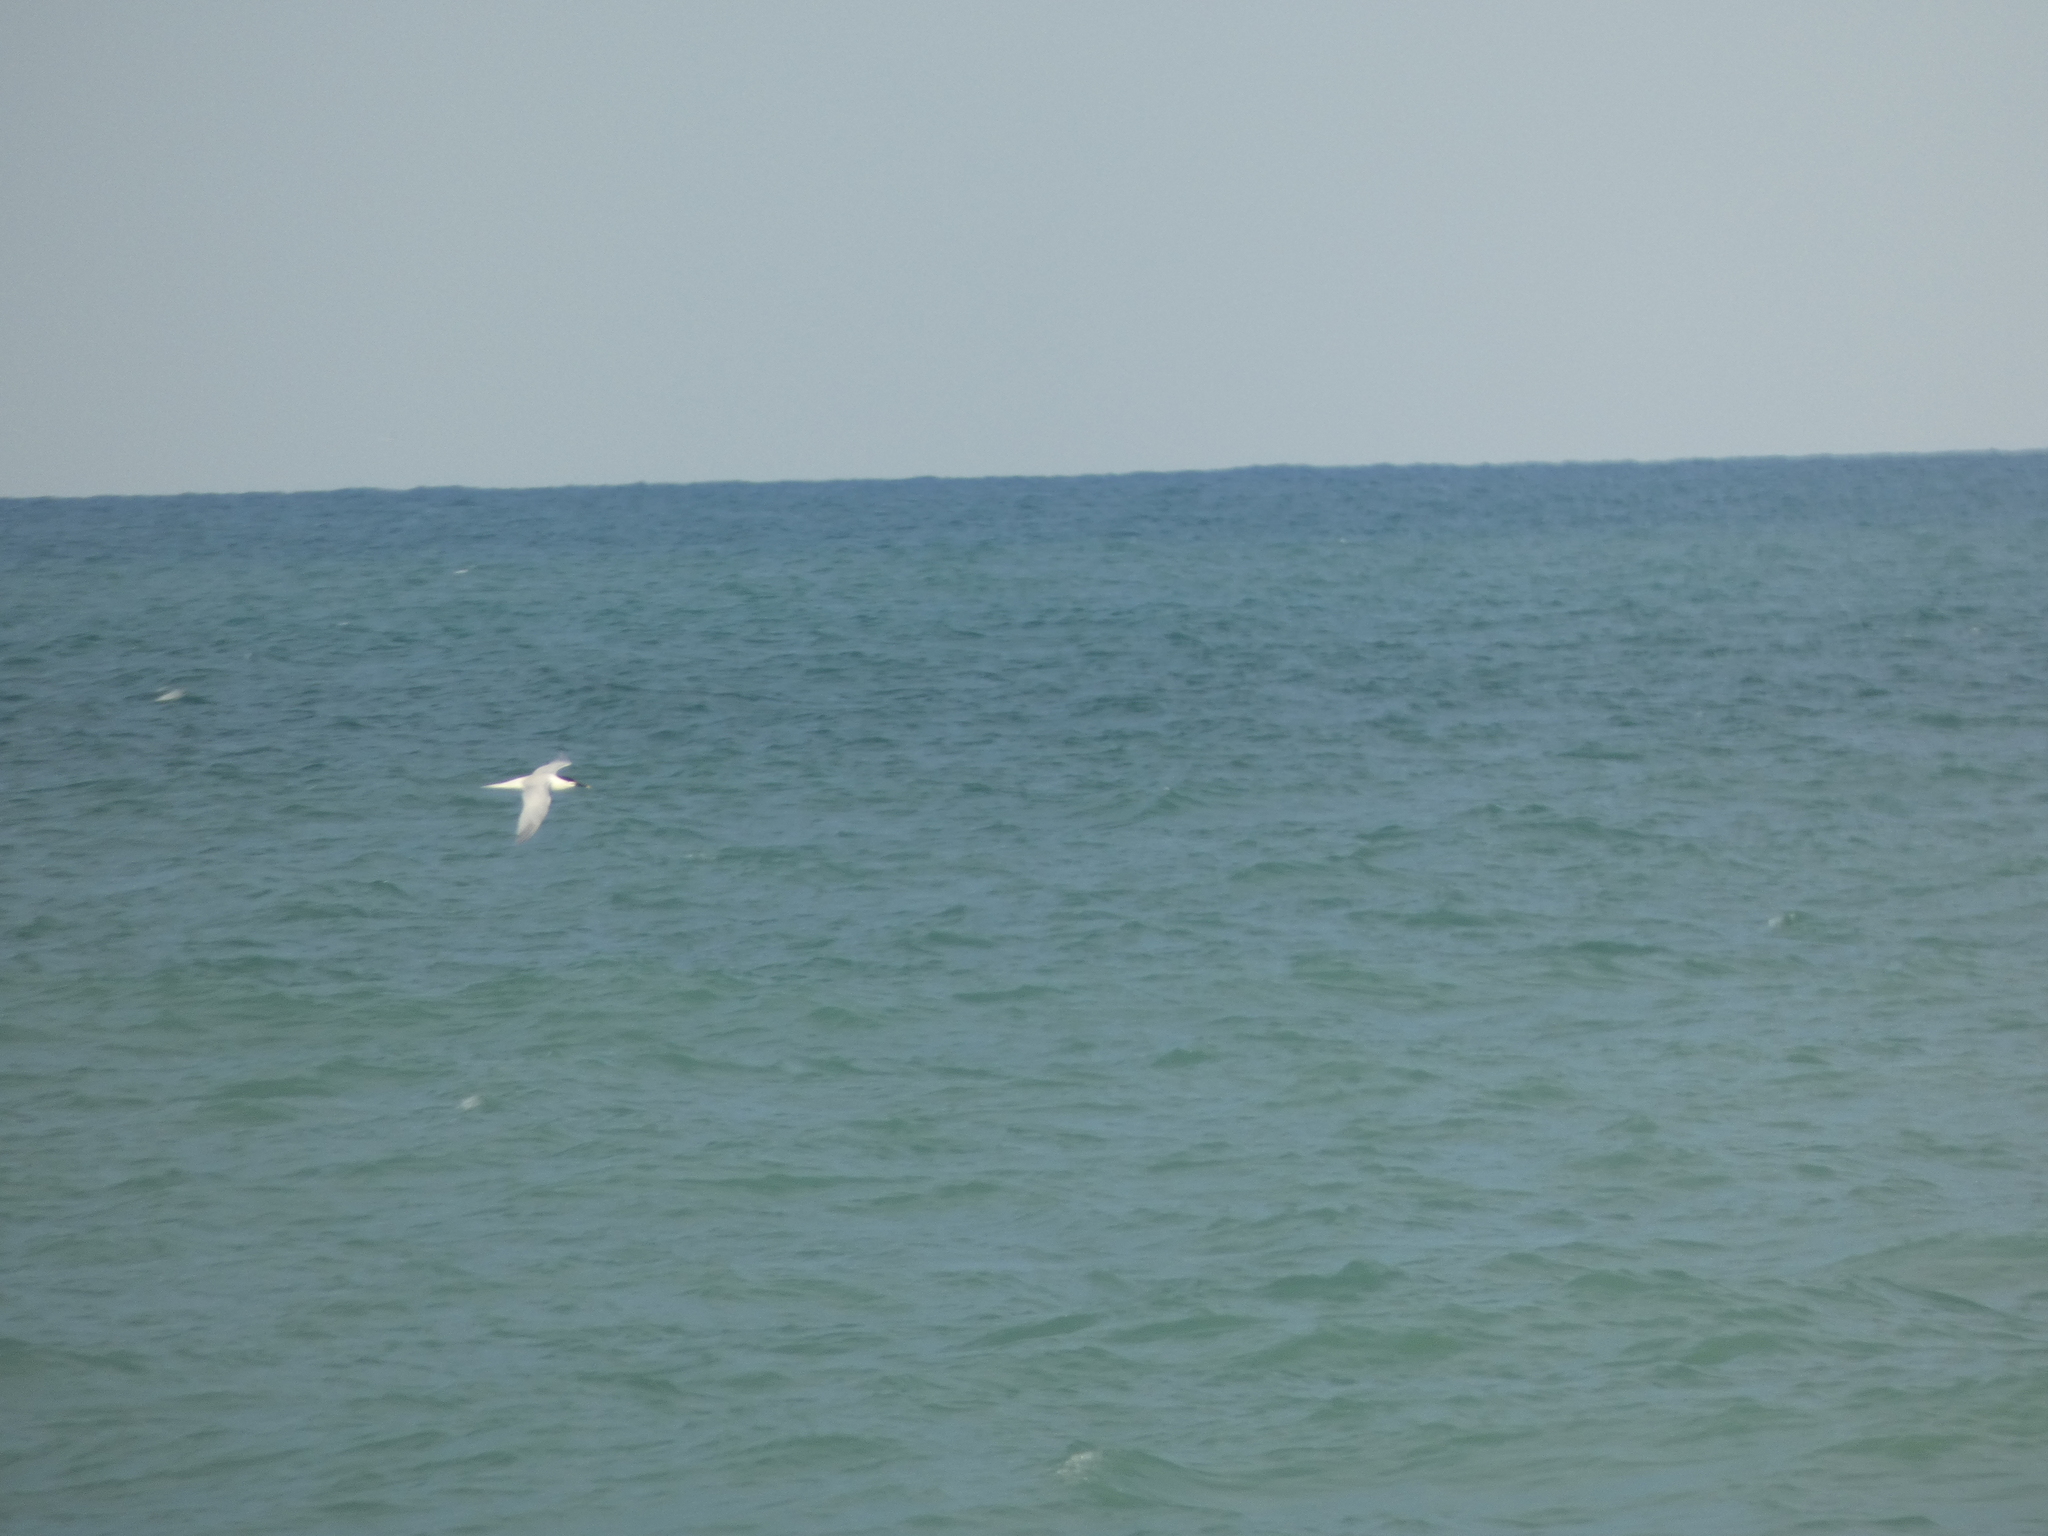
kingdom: Animalia
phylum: Chordata
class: Aves
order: Charadriiformes
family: Laridae
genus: Thalasseus
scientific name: Thalasseus sandvicensis
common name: Sandwich tern
